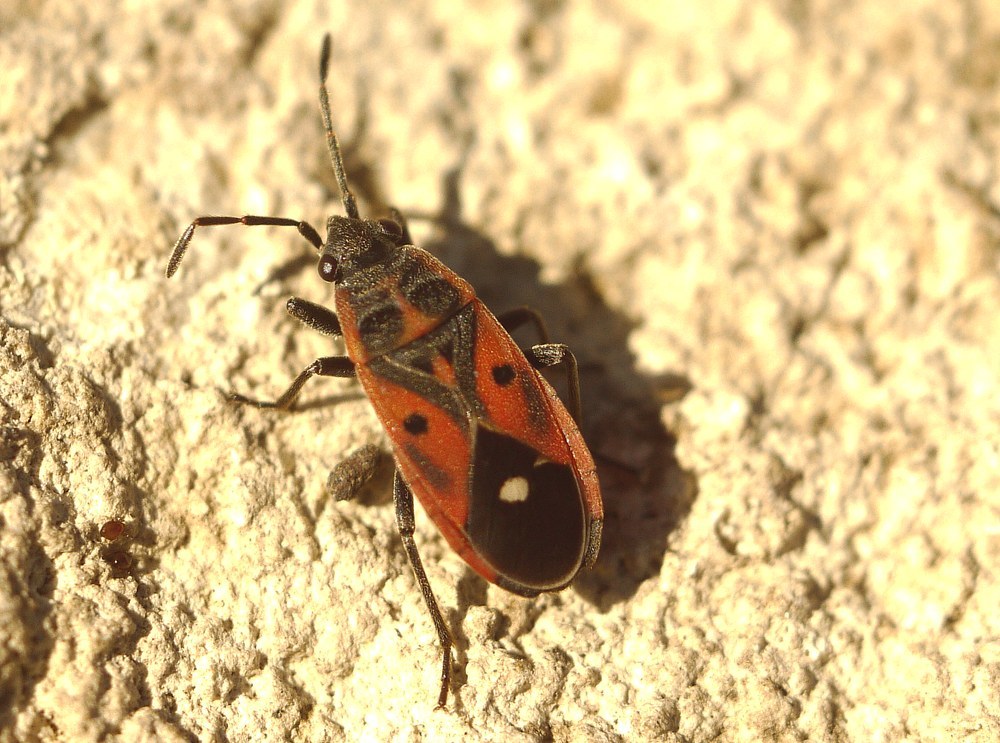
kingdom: Animalia
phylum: Arthropoda
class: Insecta
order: Hemiptera
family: Lygaeidae
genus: Melanocoryphus
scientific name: Melanocoryphus tristrami
